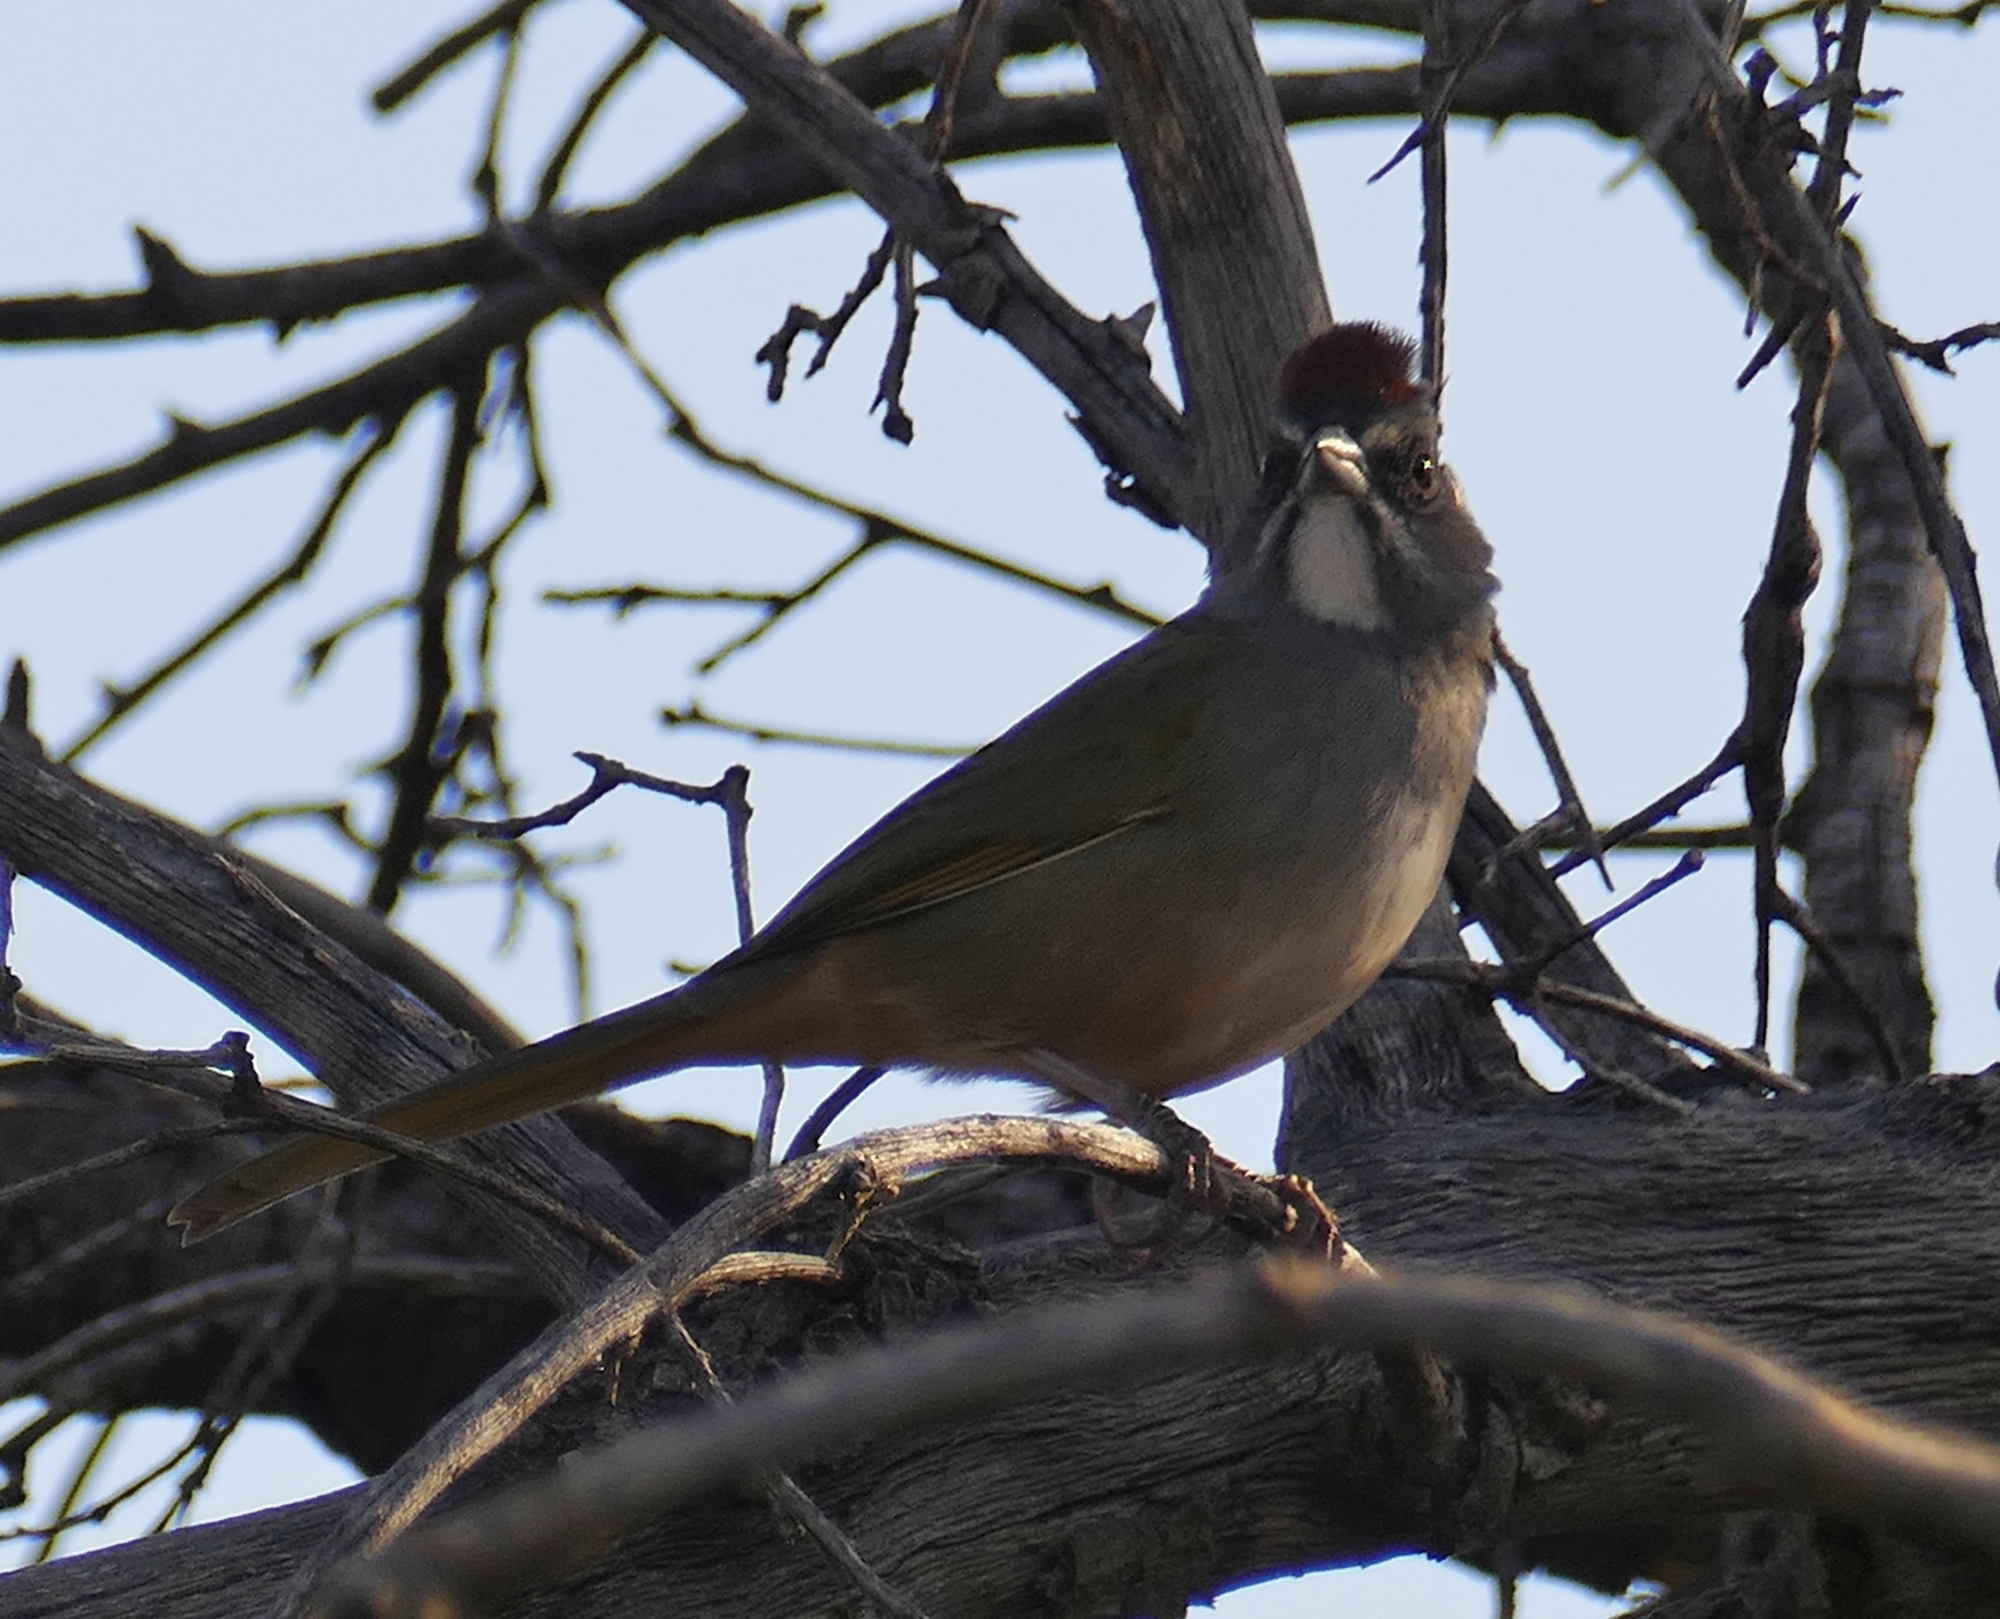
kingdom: Animalia
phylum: Chordata
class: Aves
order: Passeriformes
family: Passerellidae
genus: Pipilo
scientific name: Pipilo chlorurus
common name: Green-tailed towhee
